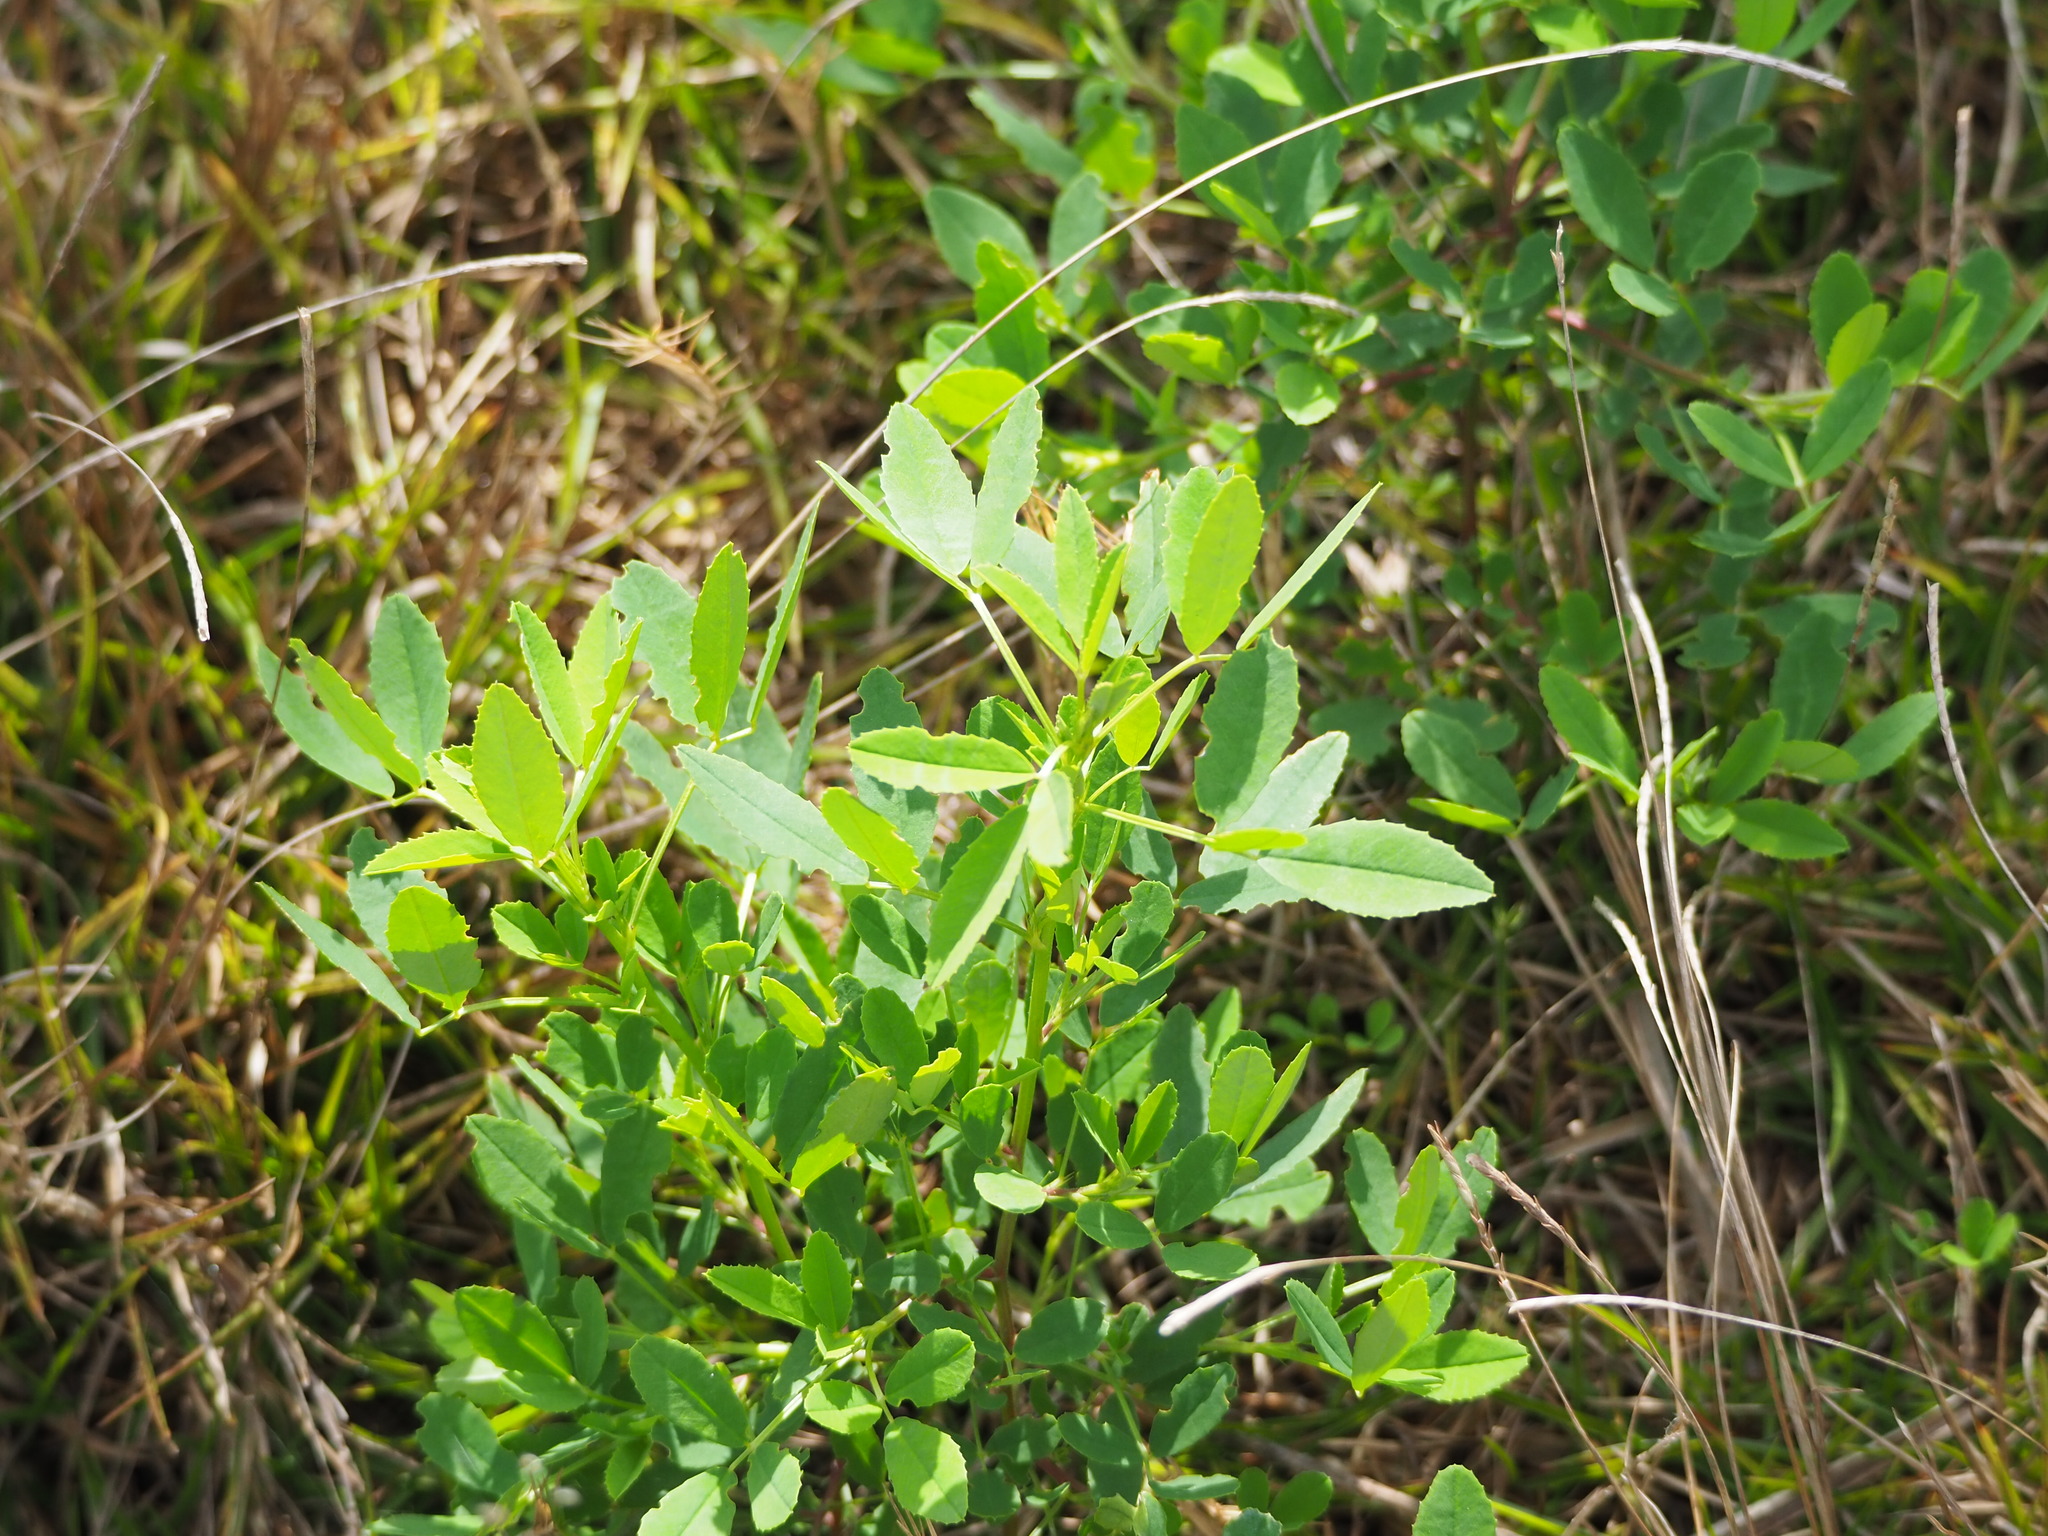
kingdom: Plantae
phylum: Tracheophyta
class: Magnoliopsida
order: Fabales
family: Fabaceae
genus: Melilotus
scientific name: Melilotus indicus
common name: Small melilot
